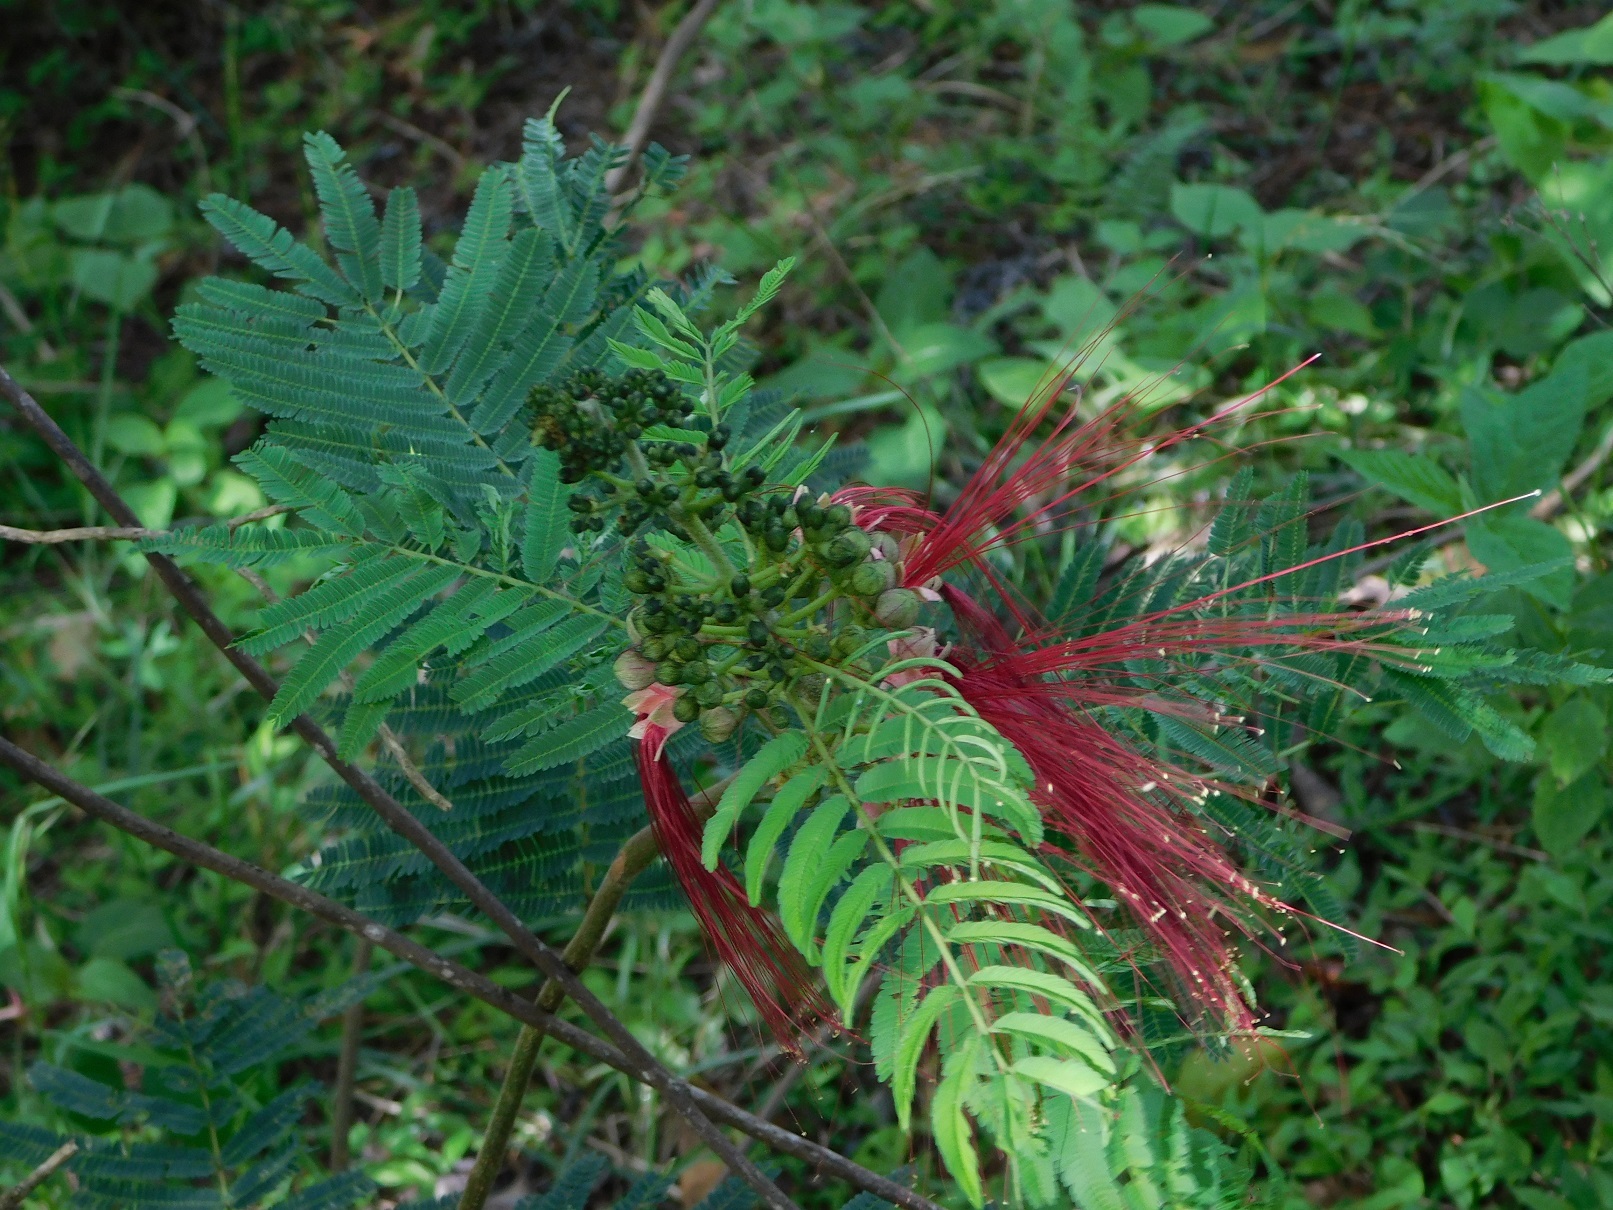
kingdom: Plantae
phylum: Tracheophyta
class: Magnoliopsida
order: Fabales
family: Fabaceae
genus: Calliandra
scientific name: Calliandra houstoniana
